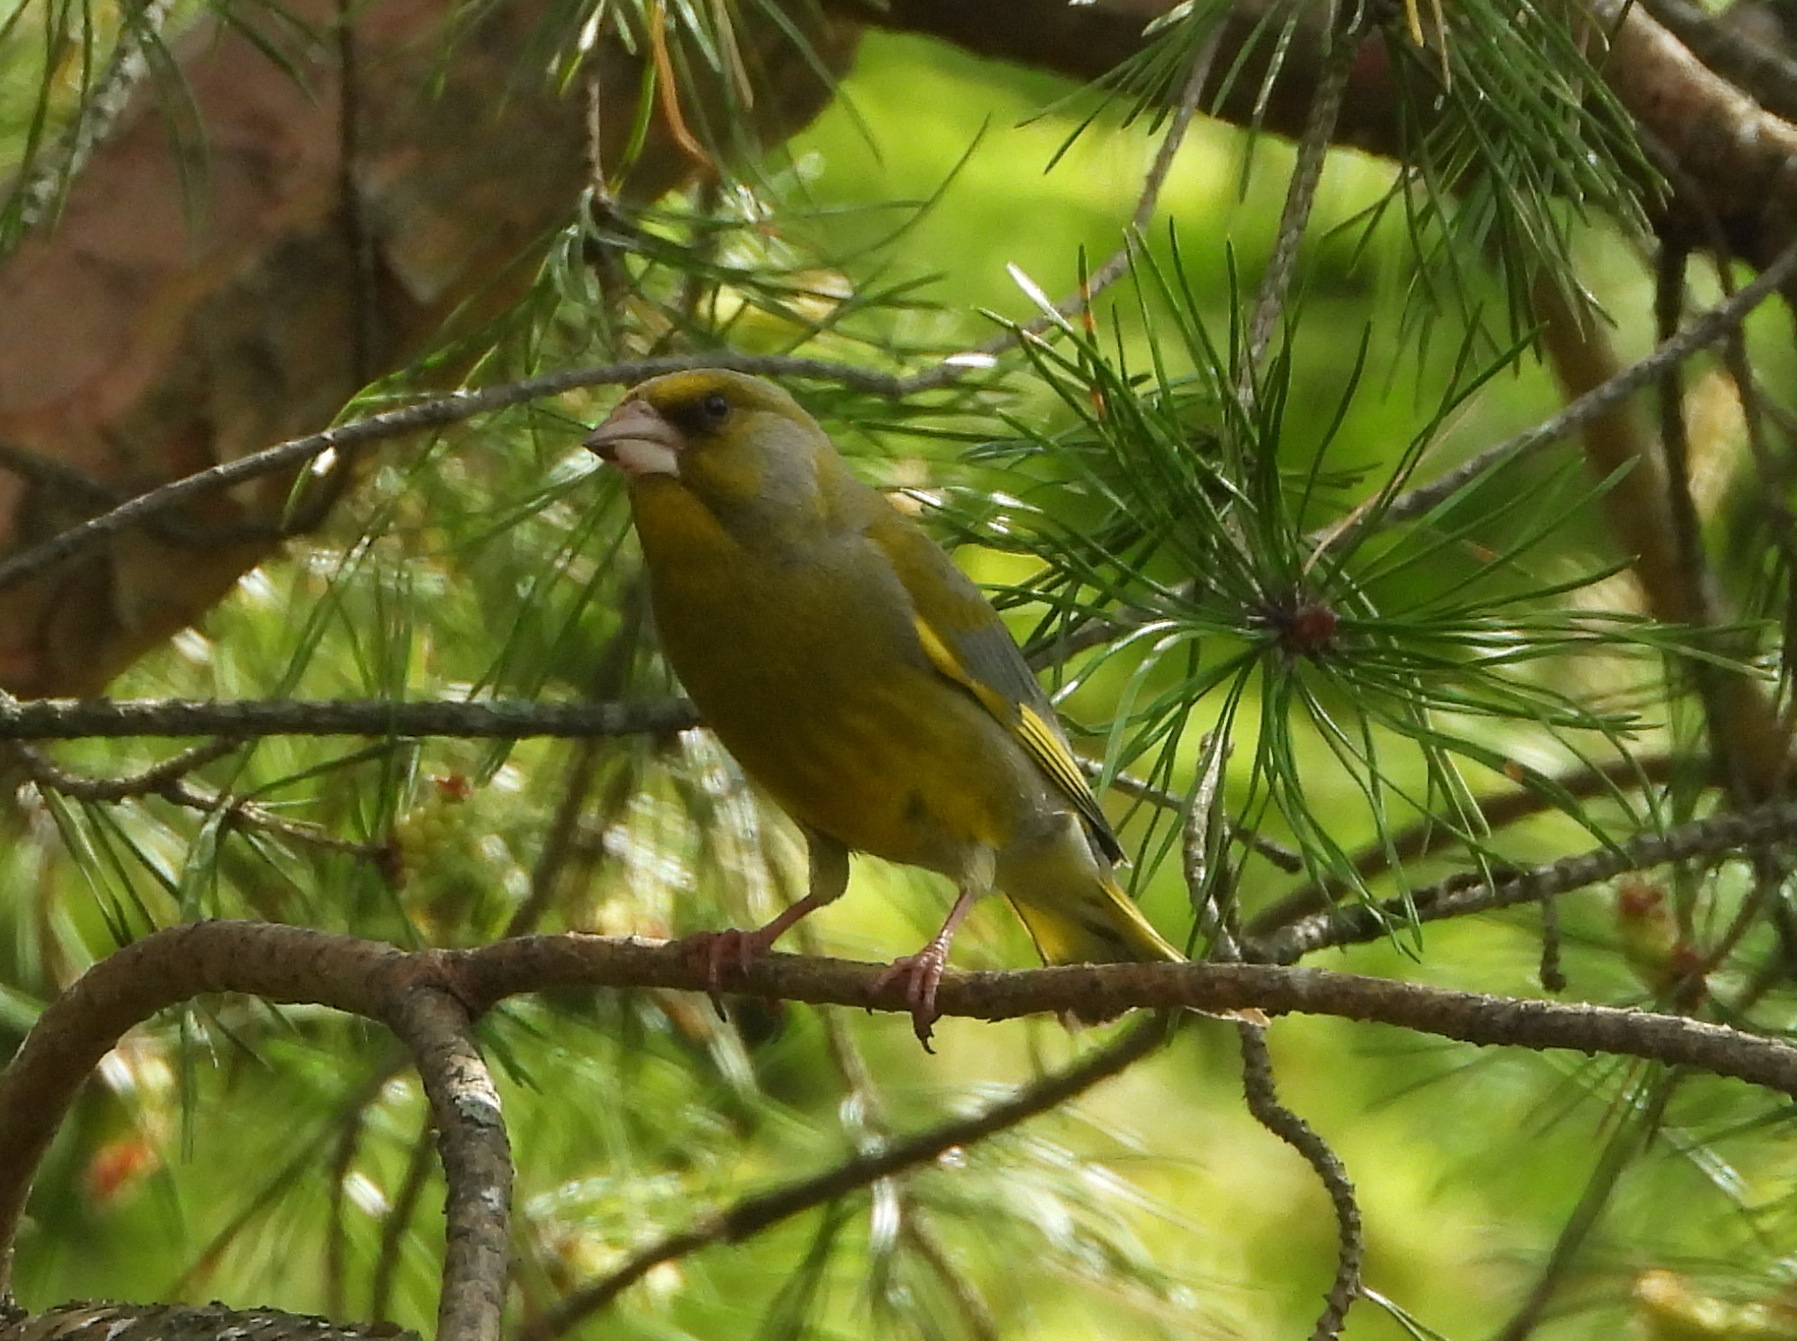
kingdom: Plantae
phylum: Tracheophyta
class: Liliopsida
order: Poales
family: Poaceae
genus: Chloris
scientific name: Chloris chloris
